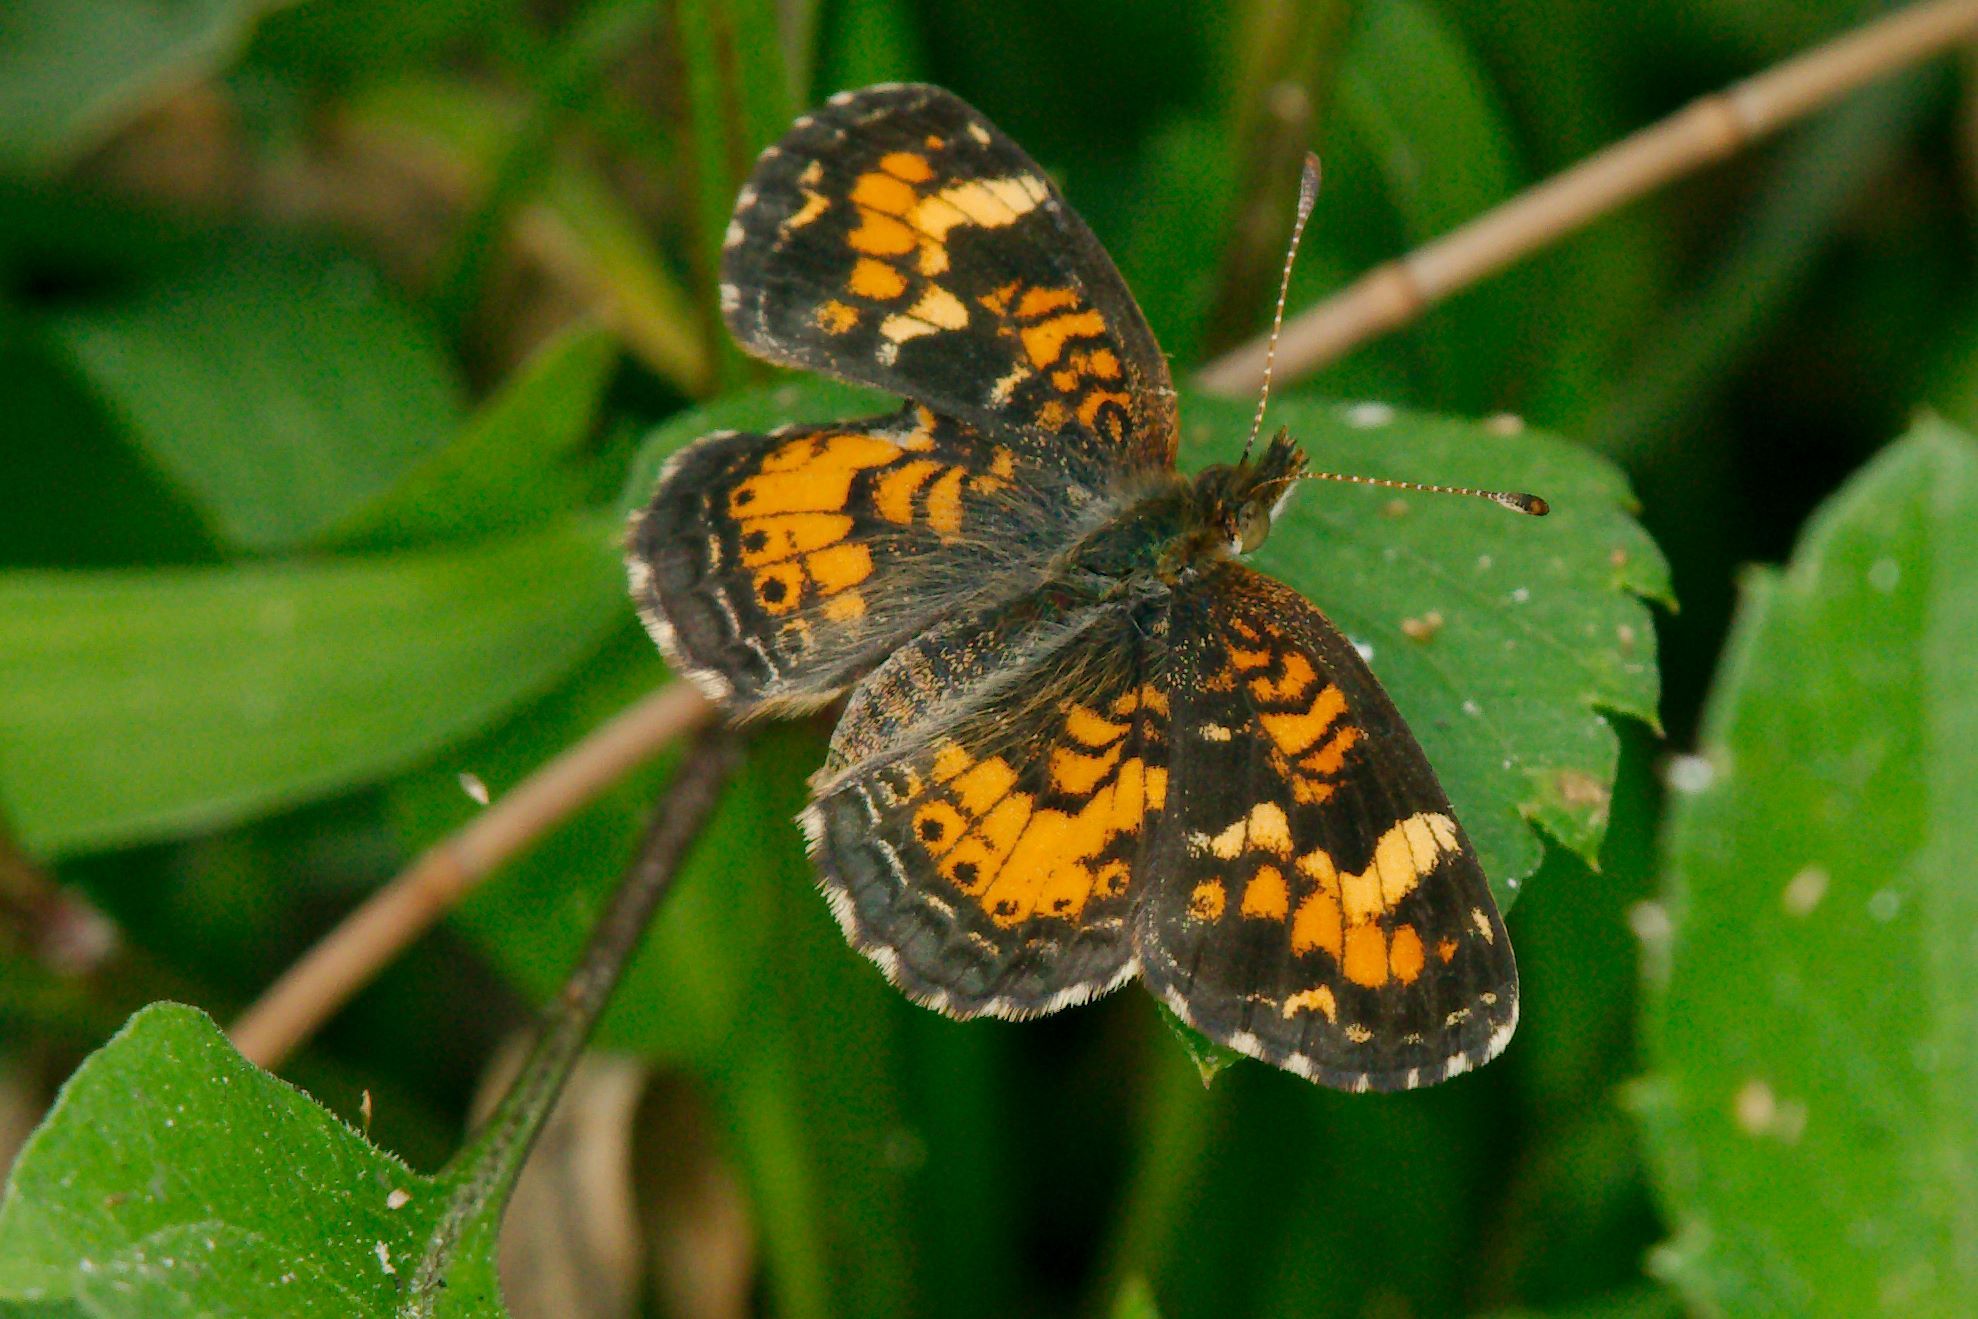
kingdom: Animalia
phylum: Arthropoda
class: Insecta
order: Lepidoptera
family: Nymphalidae
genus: Phyciodes
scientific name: Phyciodes phaon
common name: Phaon crescent
